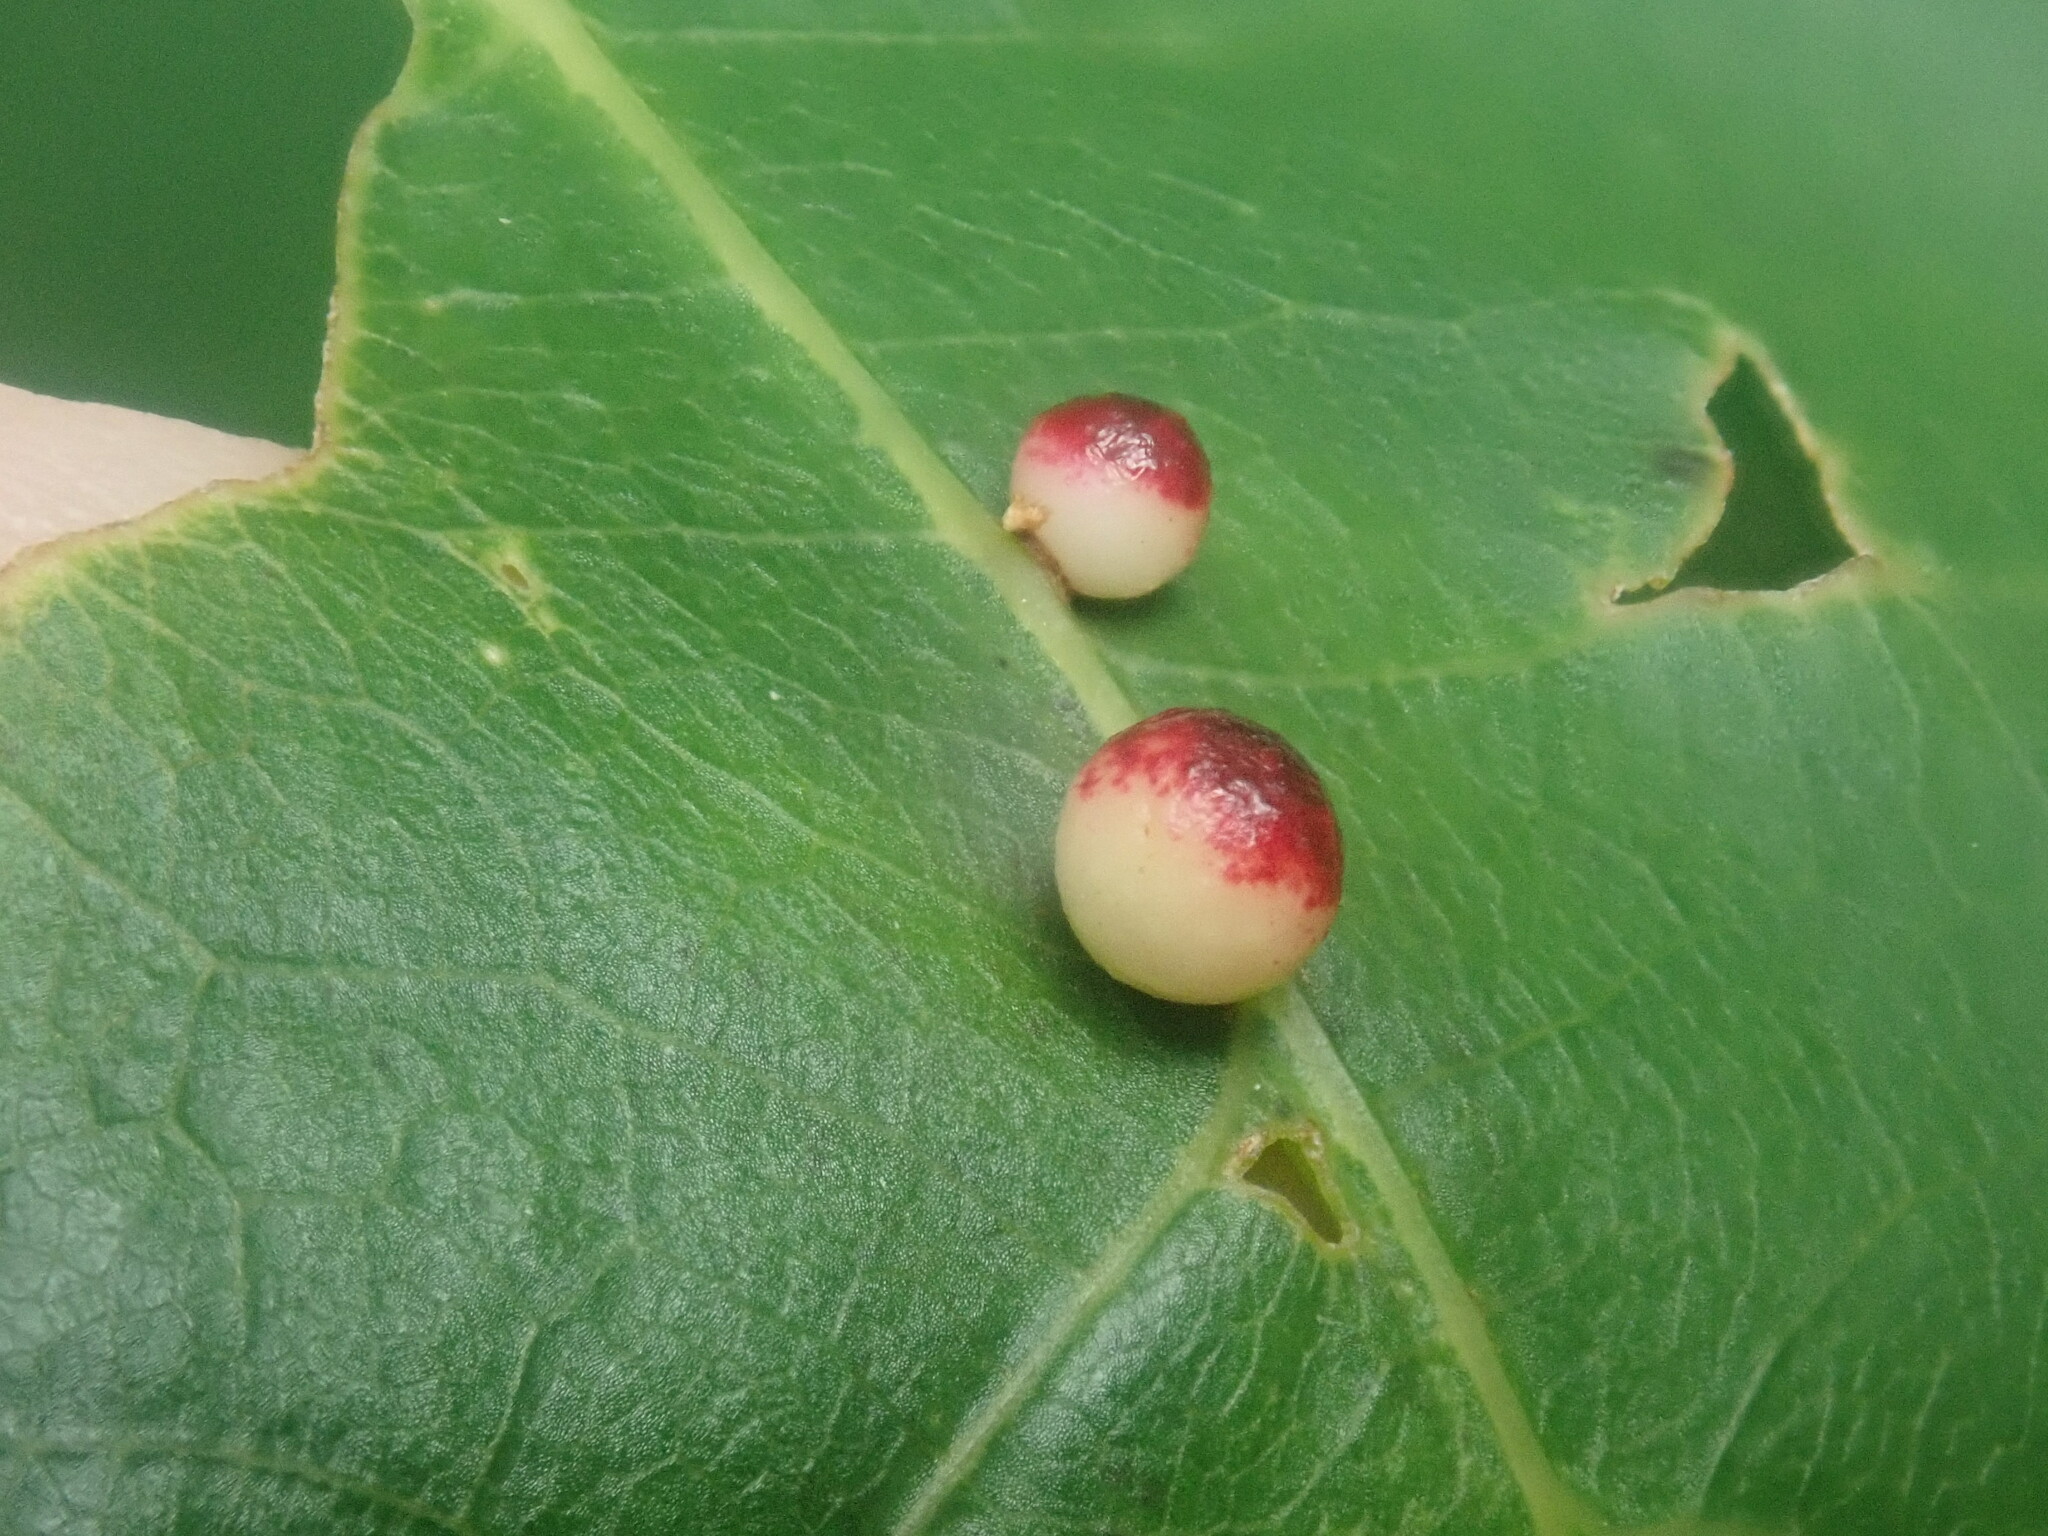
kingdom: Animalia
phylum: Arthropoda
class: Insecta
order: Hymenoptera
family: Cynipidae
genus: Zopheroteras
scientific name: Zopheroteras
